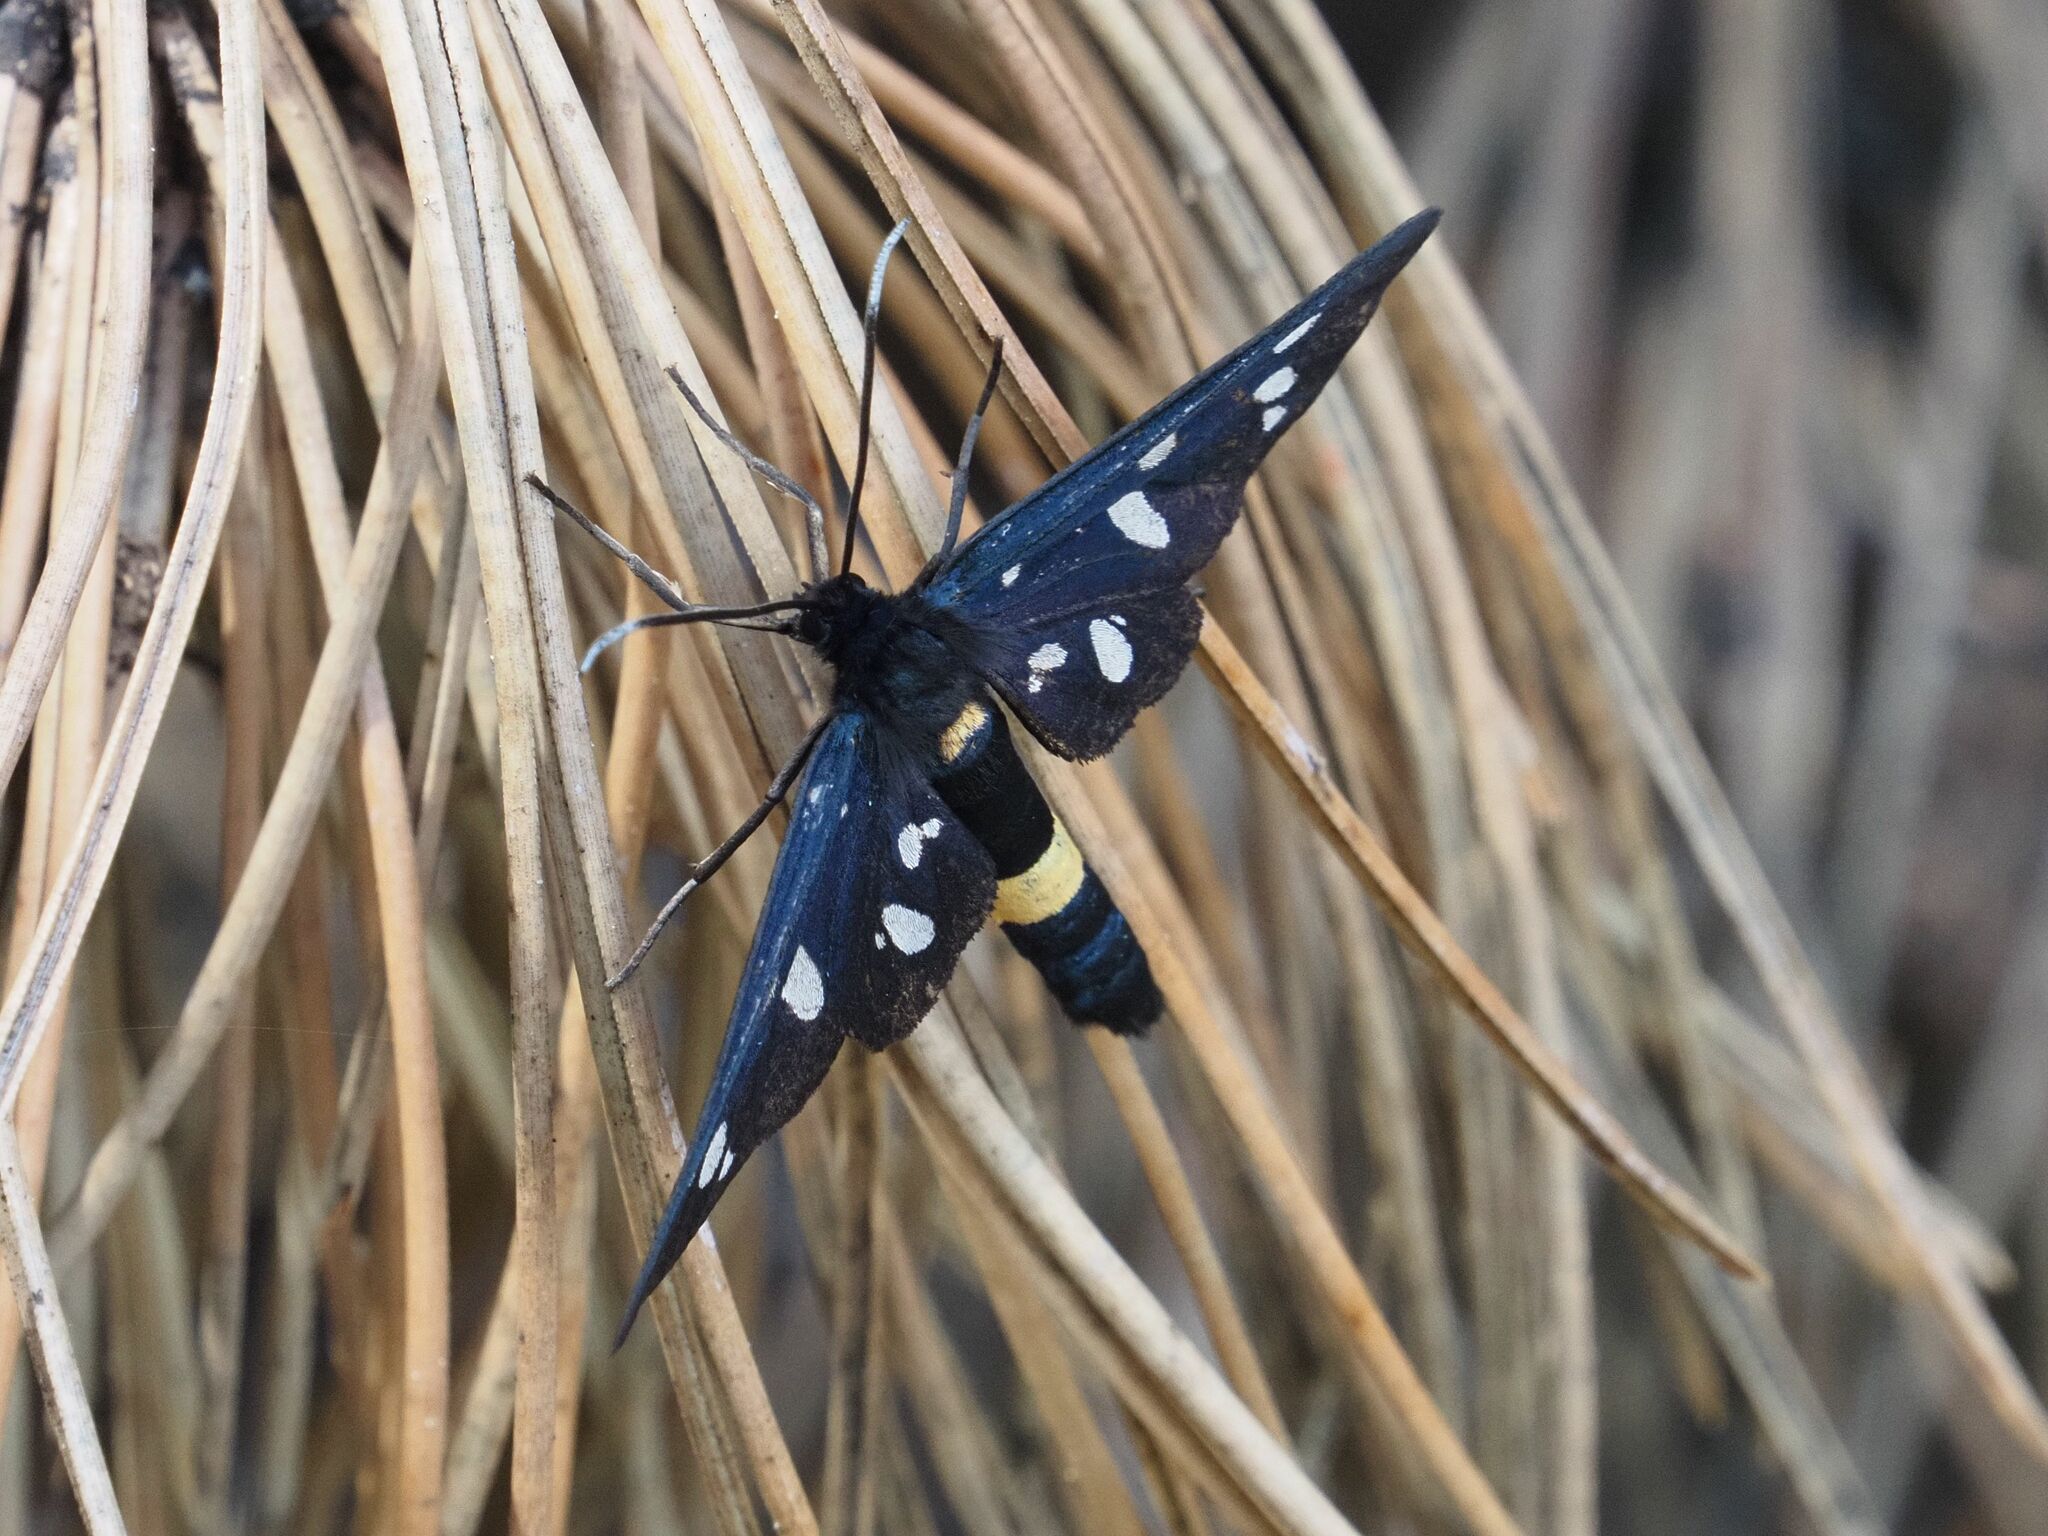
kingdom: Animalia
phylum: Arthropoda
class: Insecta
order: Lepidoptera
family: Erebidae
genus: Amata
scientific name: Amata phegea
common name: Nine-spotted
